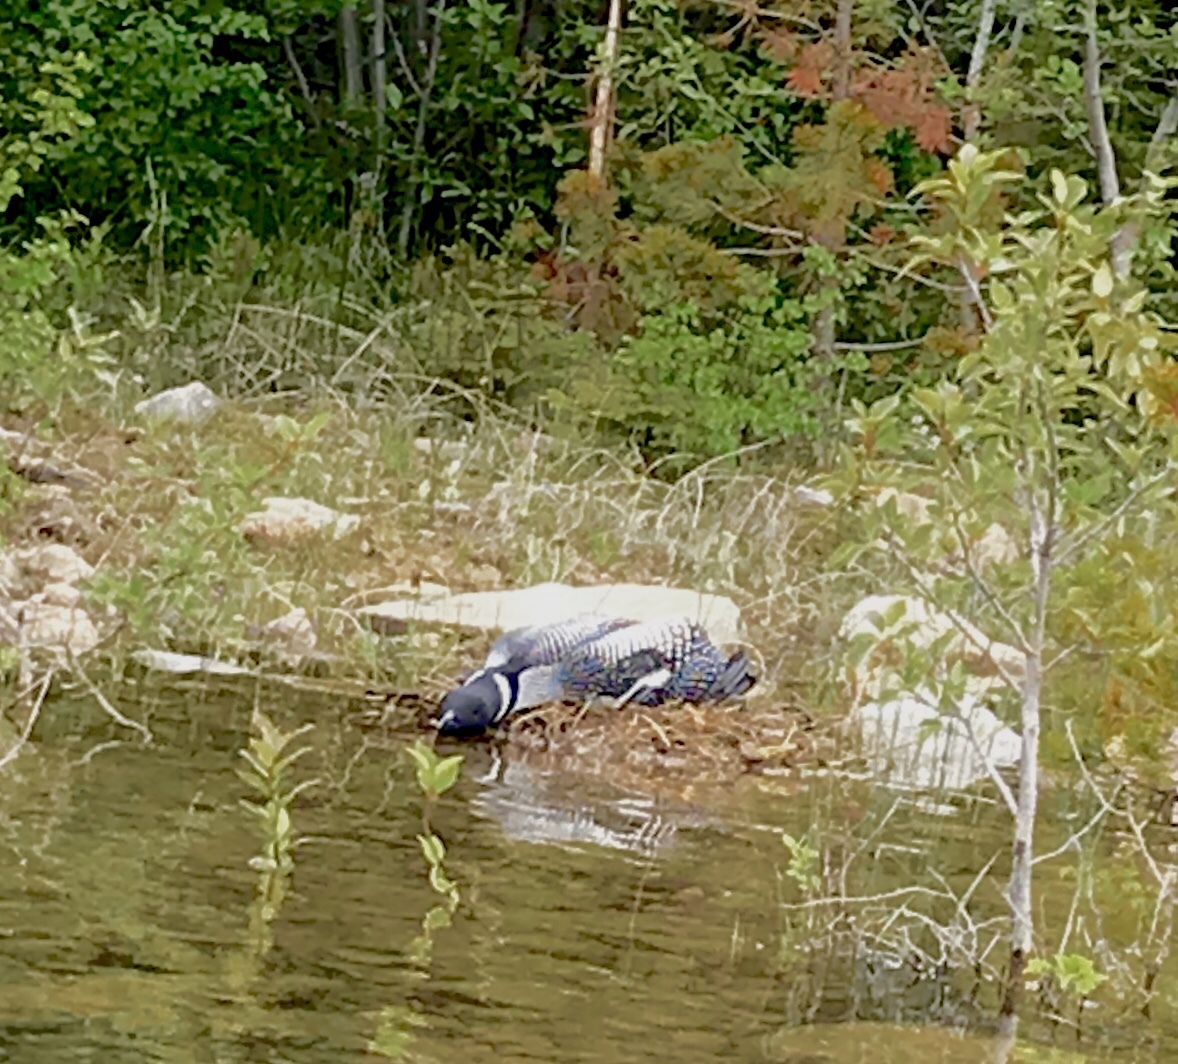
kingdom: Animalia
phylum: Chordata
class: Aves
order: Gaviiformes
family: Gaviidae
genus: Gavia
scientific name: Gavia immer
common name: Common loon
